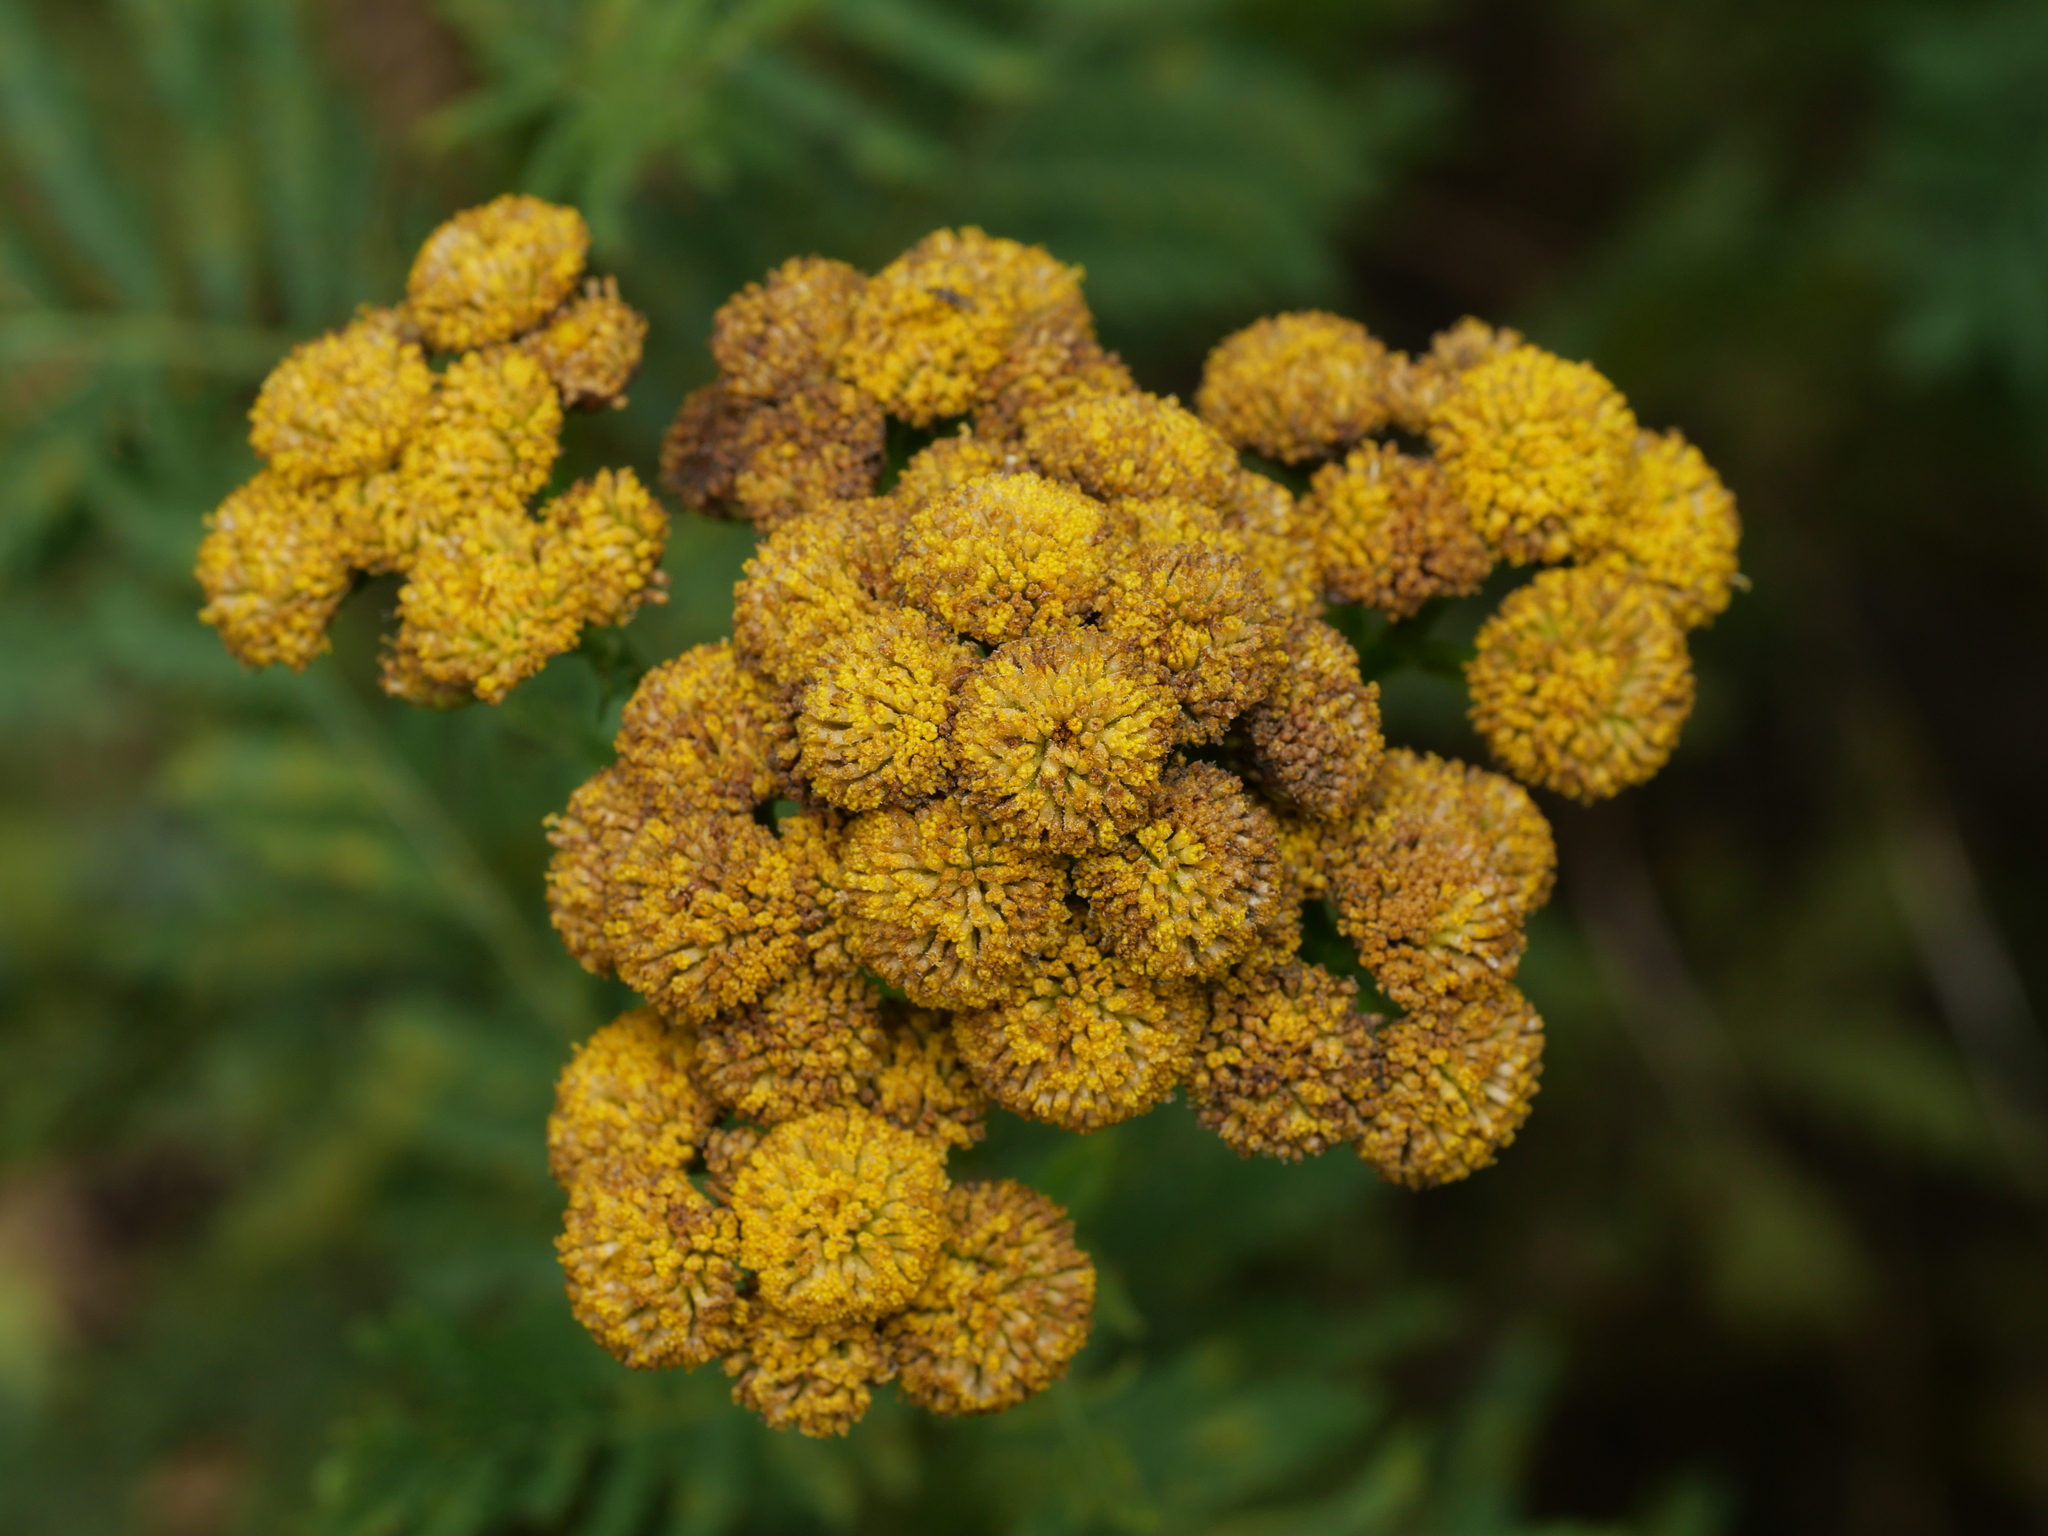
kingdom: Plantae
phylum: Tracheophyta
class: Magnoliopsida
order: Asterales
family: Asteraceae
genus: Tanacetum
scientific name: Tanacetum vulgare
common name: Common tansy
